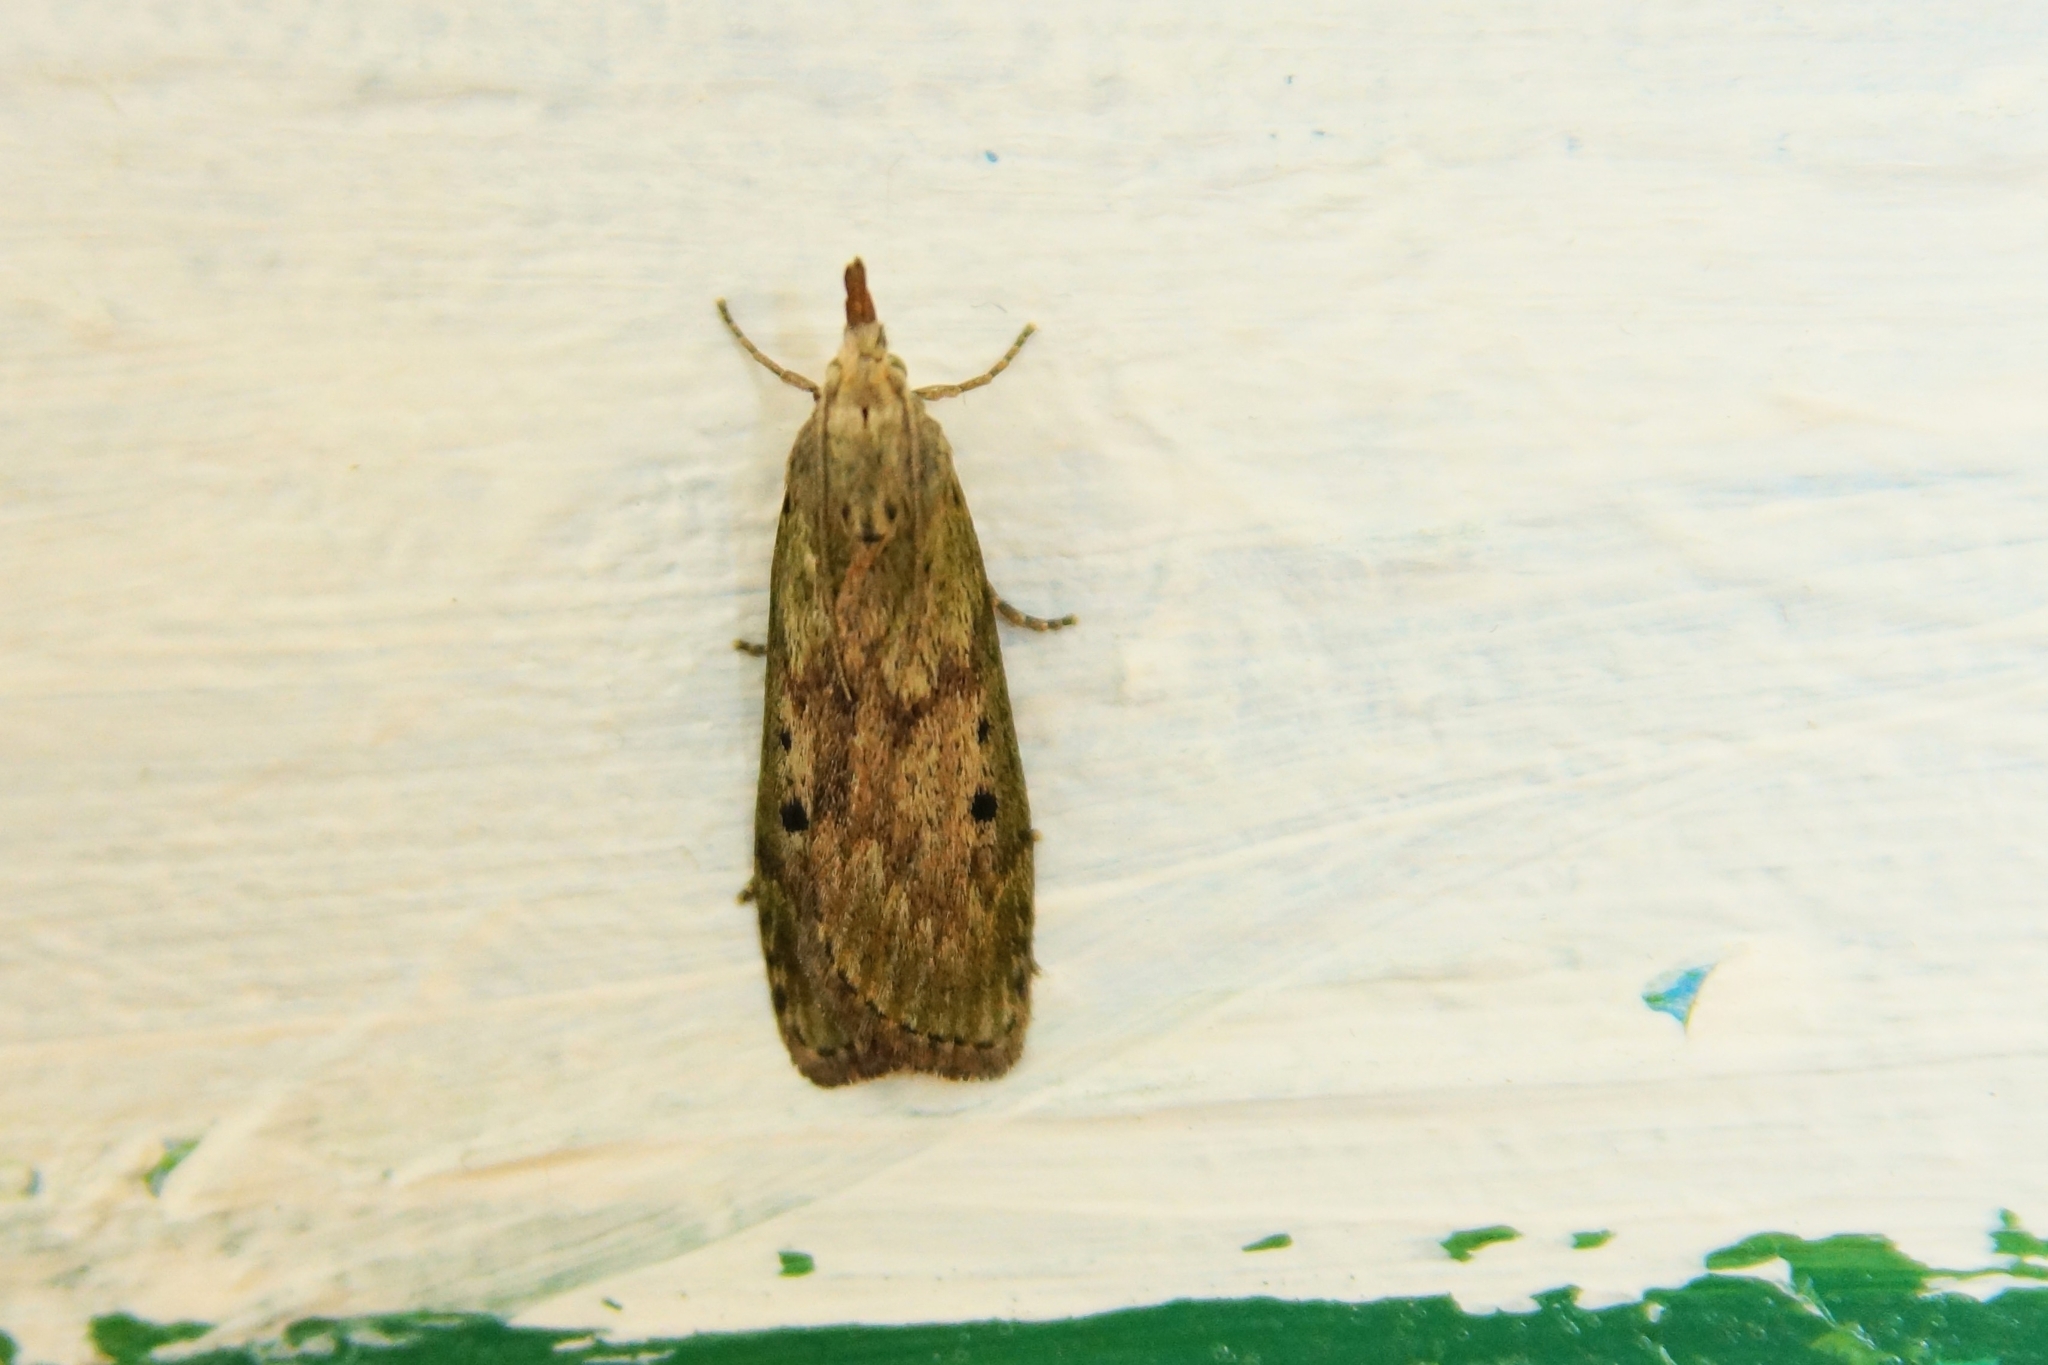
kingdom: Animalia
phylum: Arthropoda
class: Insecta
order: Lepidoptera
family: Pyralidae
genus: Aphomia
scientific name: Aphomia sociella
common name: Bee moth
